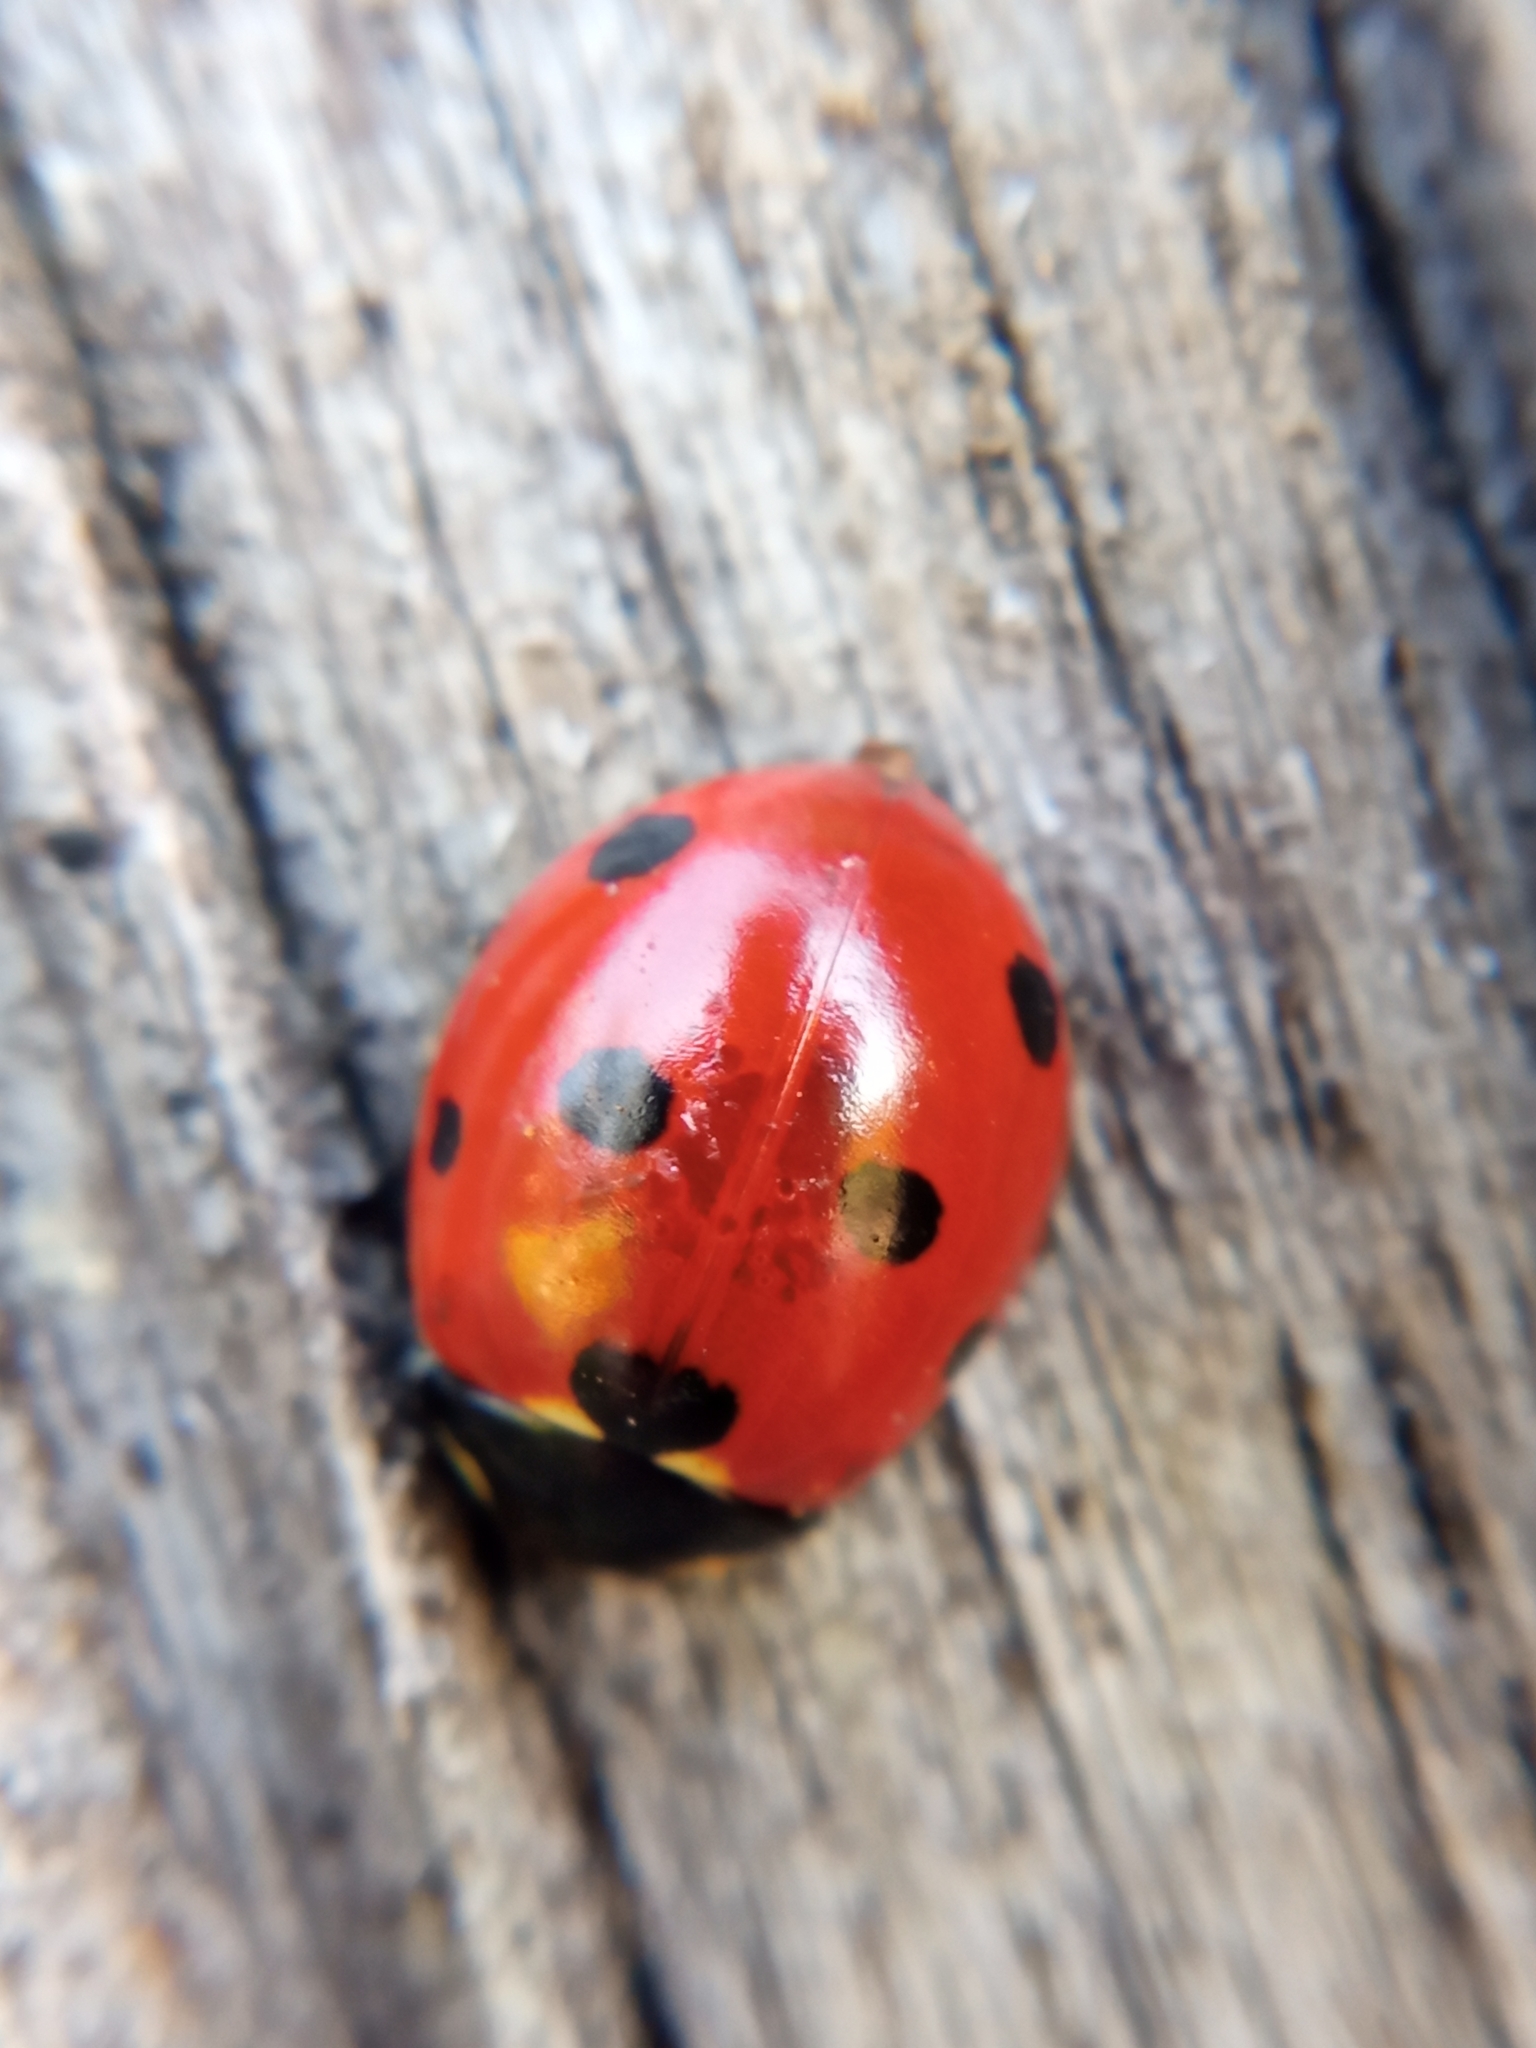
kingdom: Animalia
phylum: Arthropoda
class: Insecta
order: Coleoptera
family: Coccinellidae
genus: Coccinella
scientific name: Coccinella septempunctata
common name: Sevenspotted lady beetle
